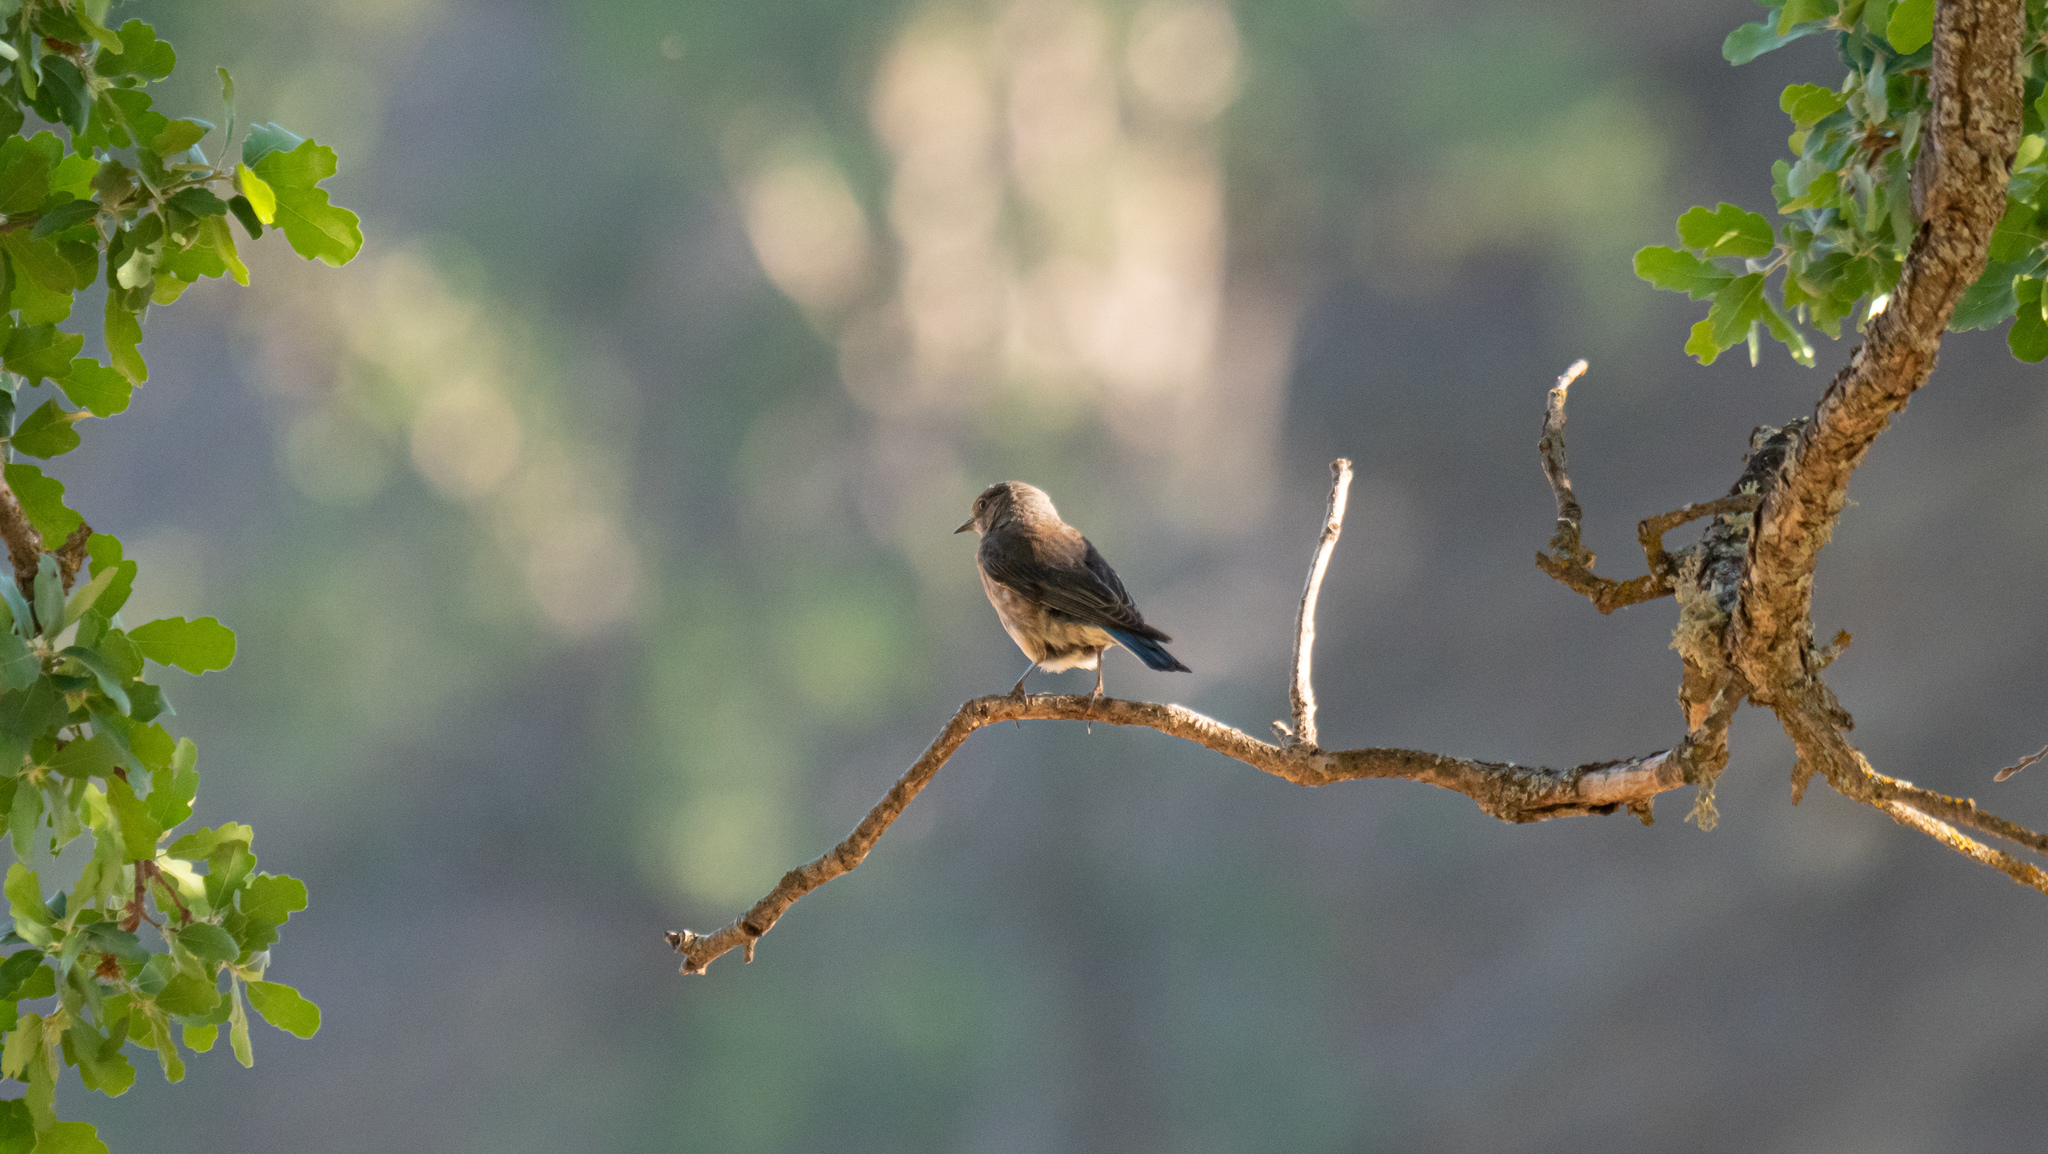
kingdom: Animalia
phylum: Chordata
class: Aves
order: Passeriformes
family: Turdidae
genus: Sialia
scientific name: Sialia mexicana
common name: Western bluebird
